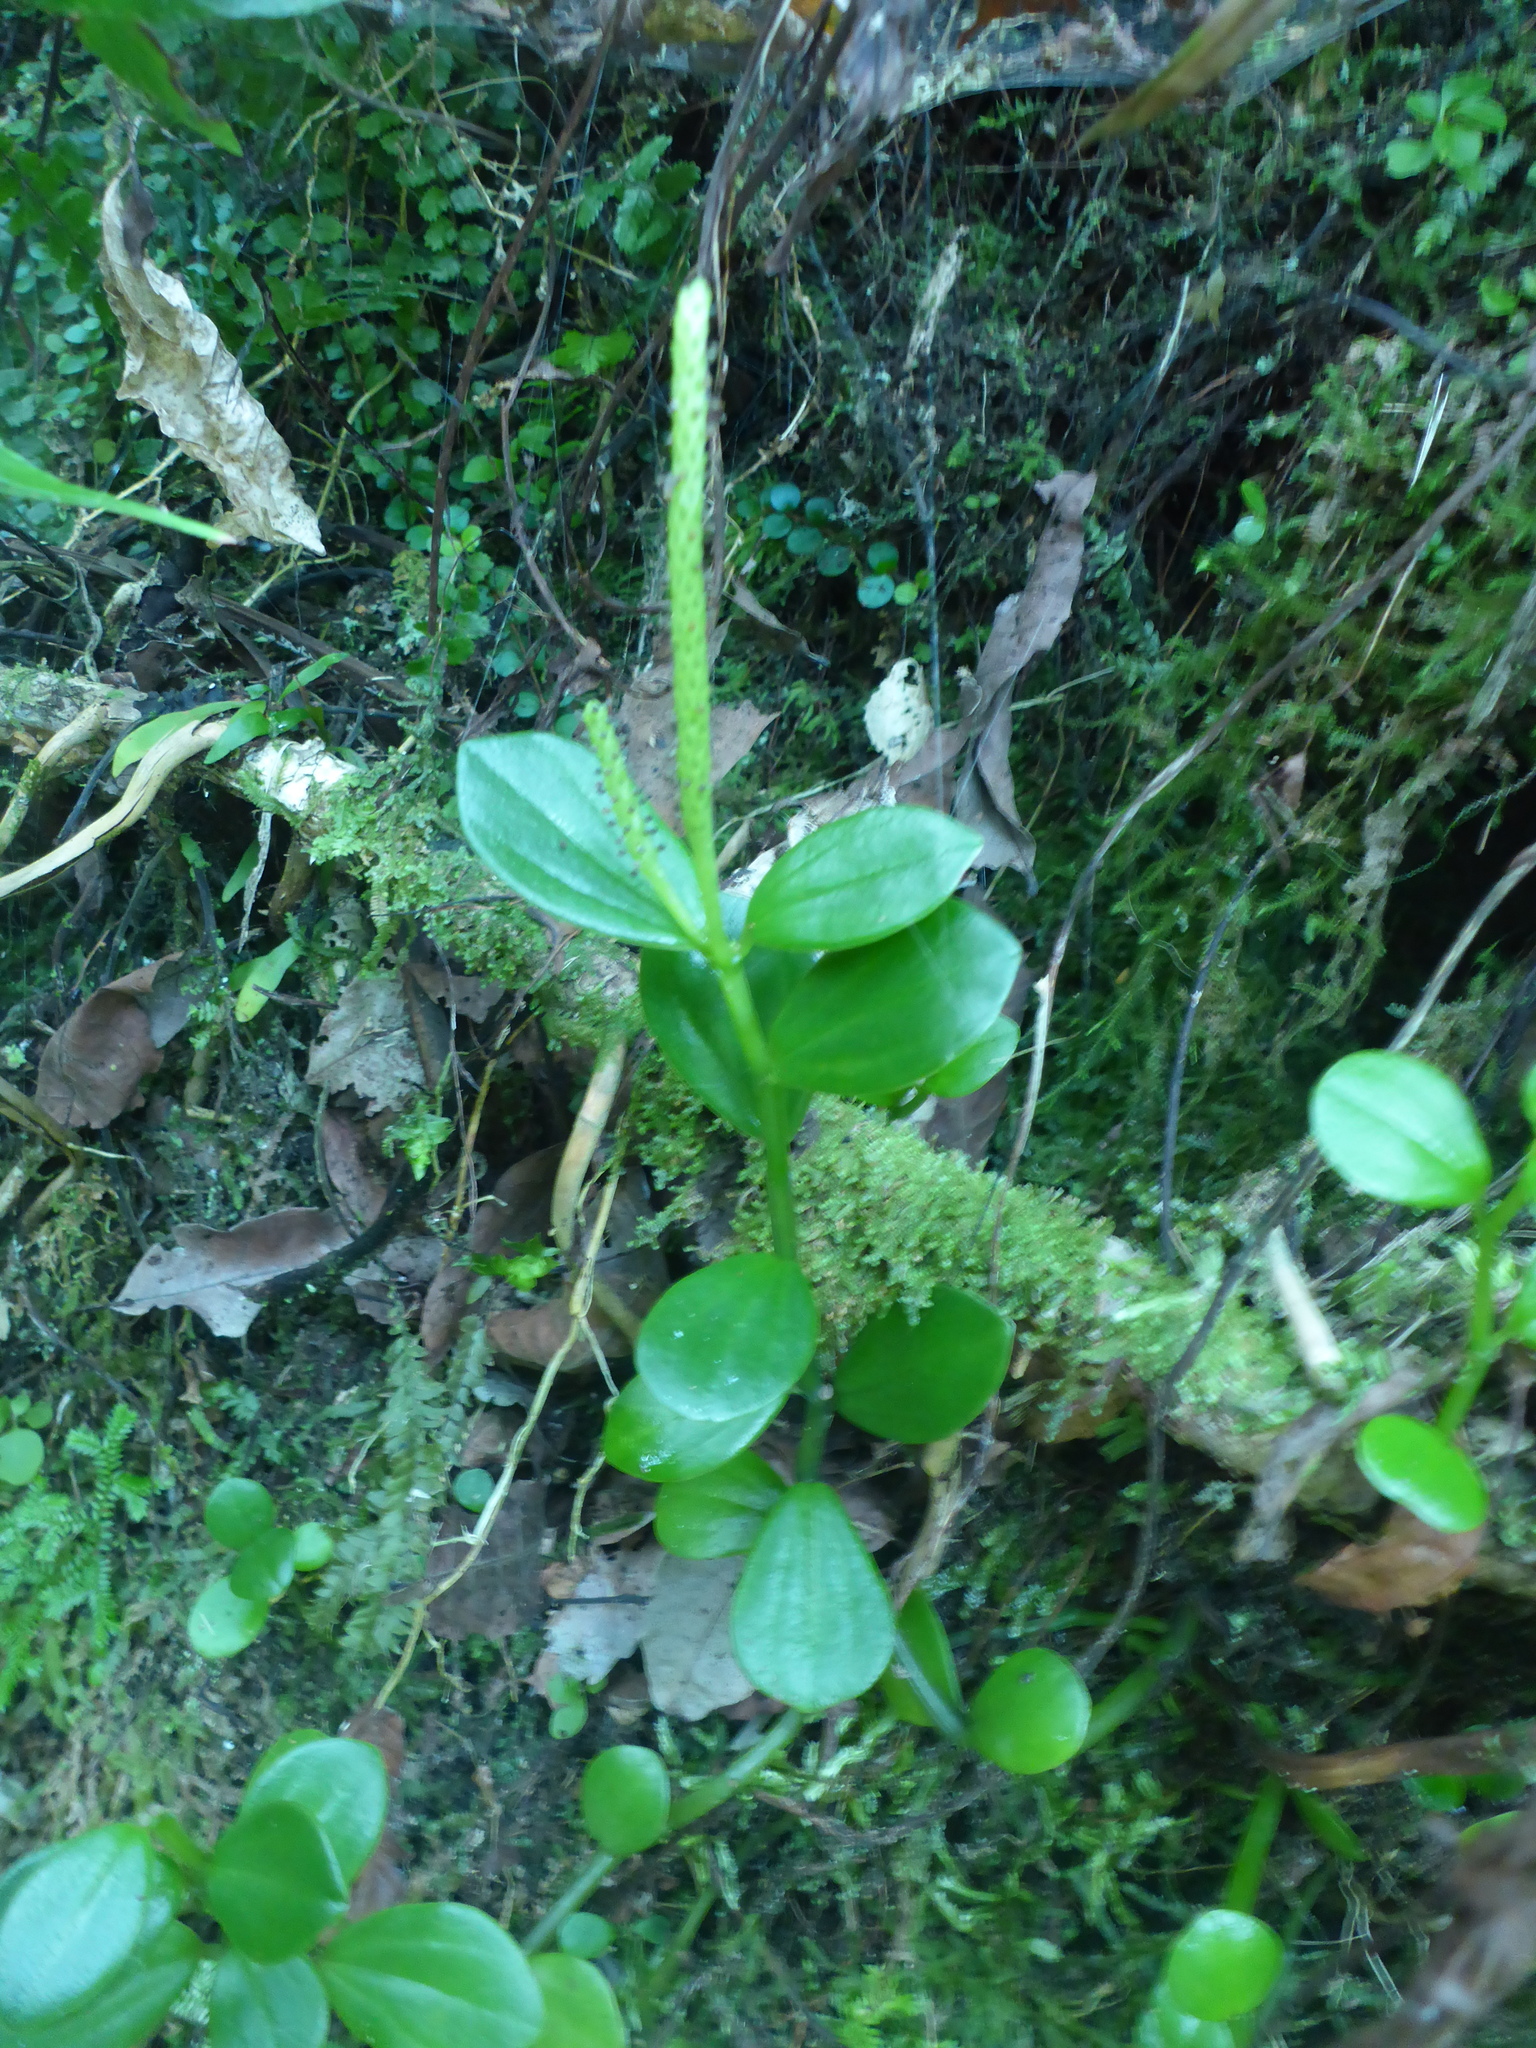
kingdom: Plantae
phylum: Tracheophyta
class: Magnoliopsida
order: Piperales
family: Piperaceae
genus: Peperomia
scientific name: Peperomia urvilleana
